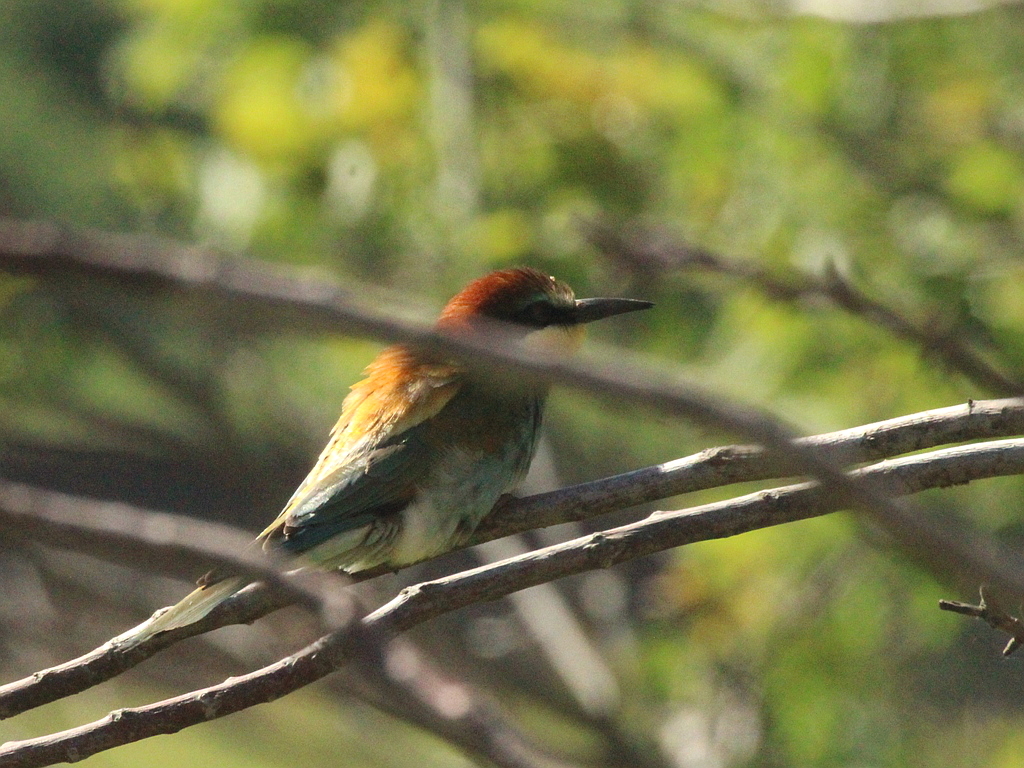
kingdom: Animalia
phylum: Chordata
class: Aves
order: Coraciiformes
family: Meropidae
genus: Merops
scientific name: Merops apiaster
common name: European bee-eater
